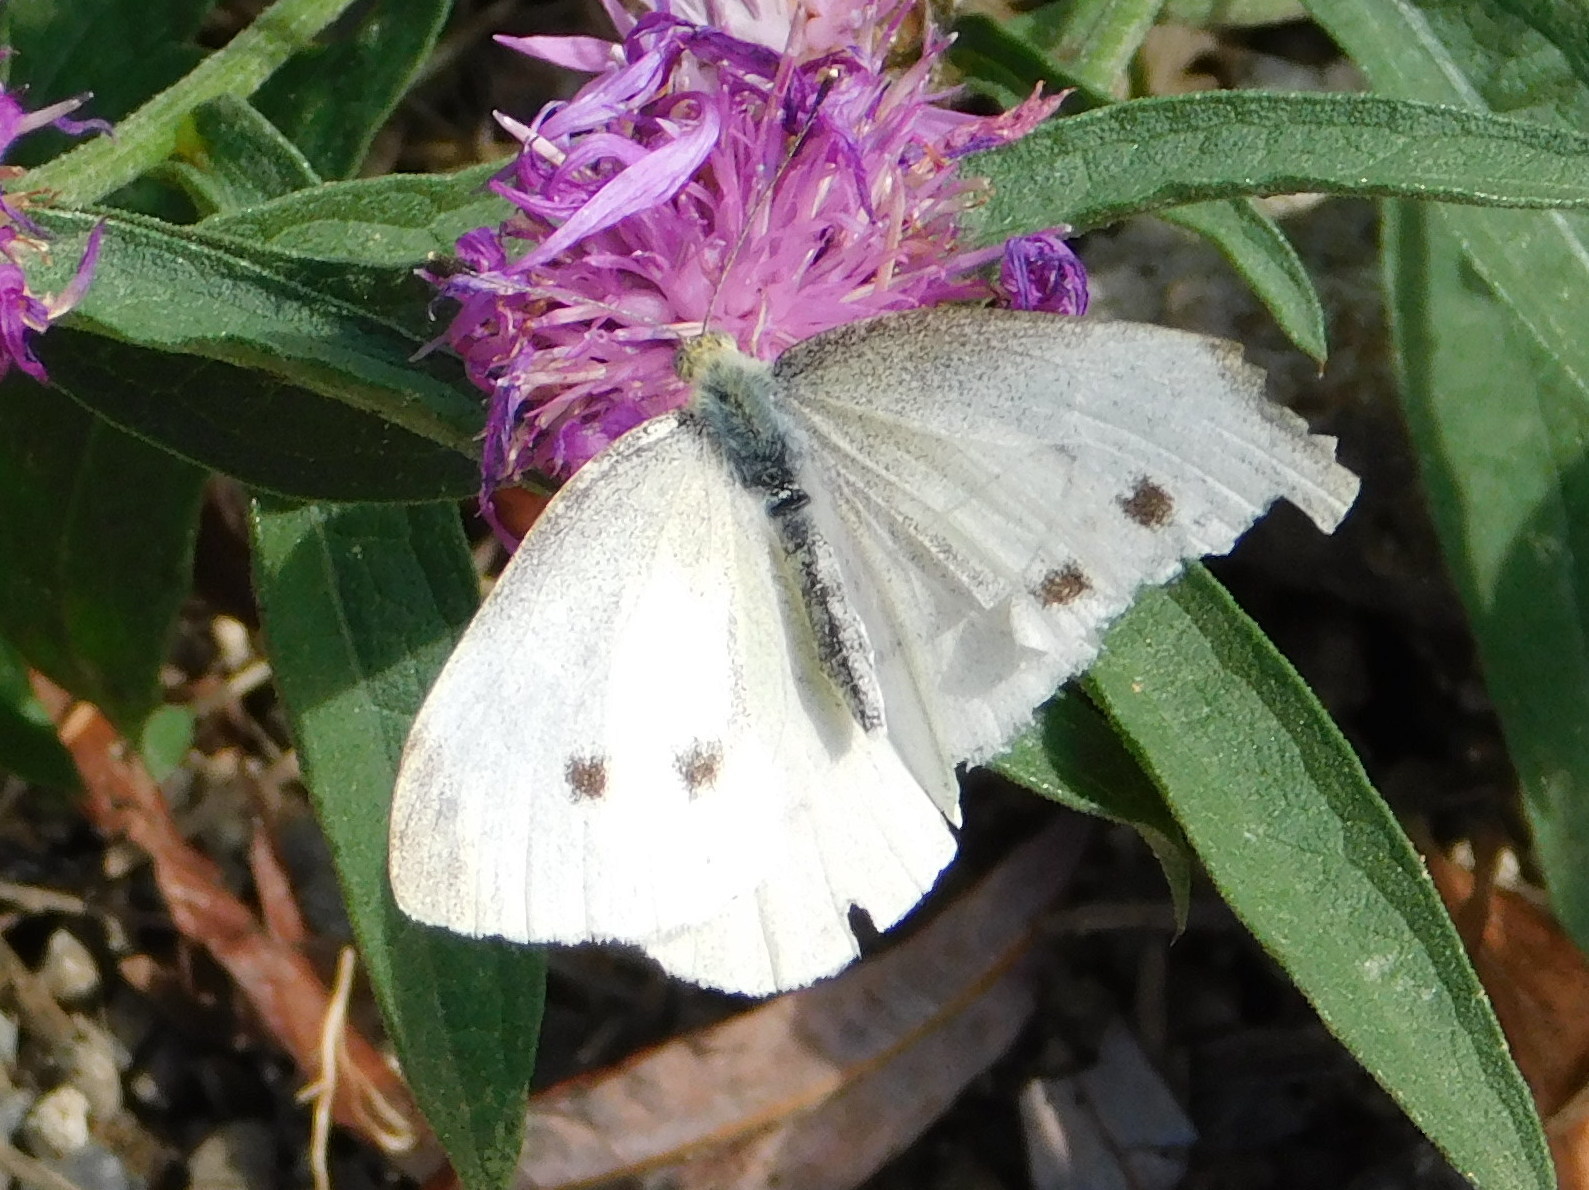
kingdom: Animalia
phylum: Arthropoda
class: Insecta
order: Lepidoptera
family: Pieridae
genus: Pieris
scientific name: Pieris rapae
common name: Small white
